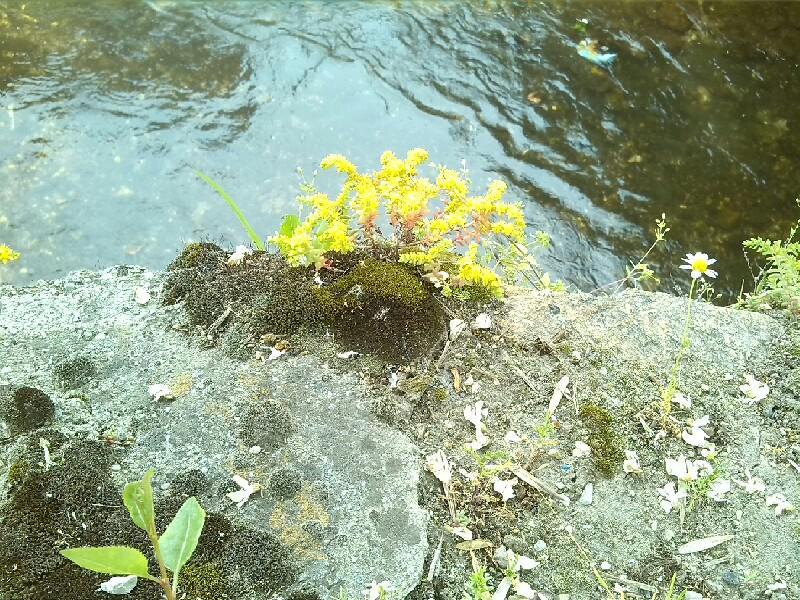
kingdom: Plantae
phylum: Tracheophyta
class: Magnoliopsida
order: Saxifragales
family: Crassulaceae
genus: Sedum
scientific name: Sedum annuum
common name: Annual stonecrop
